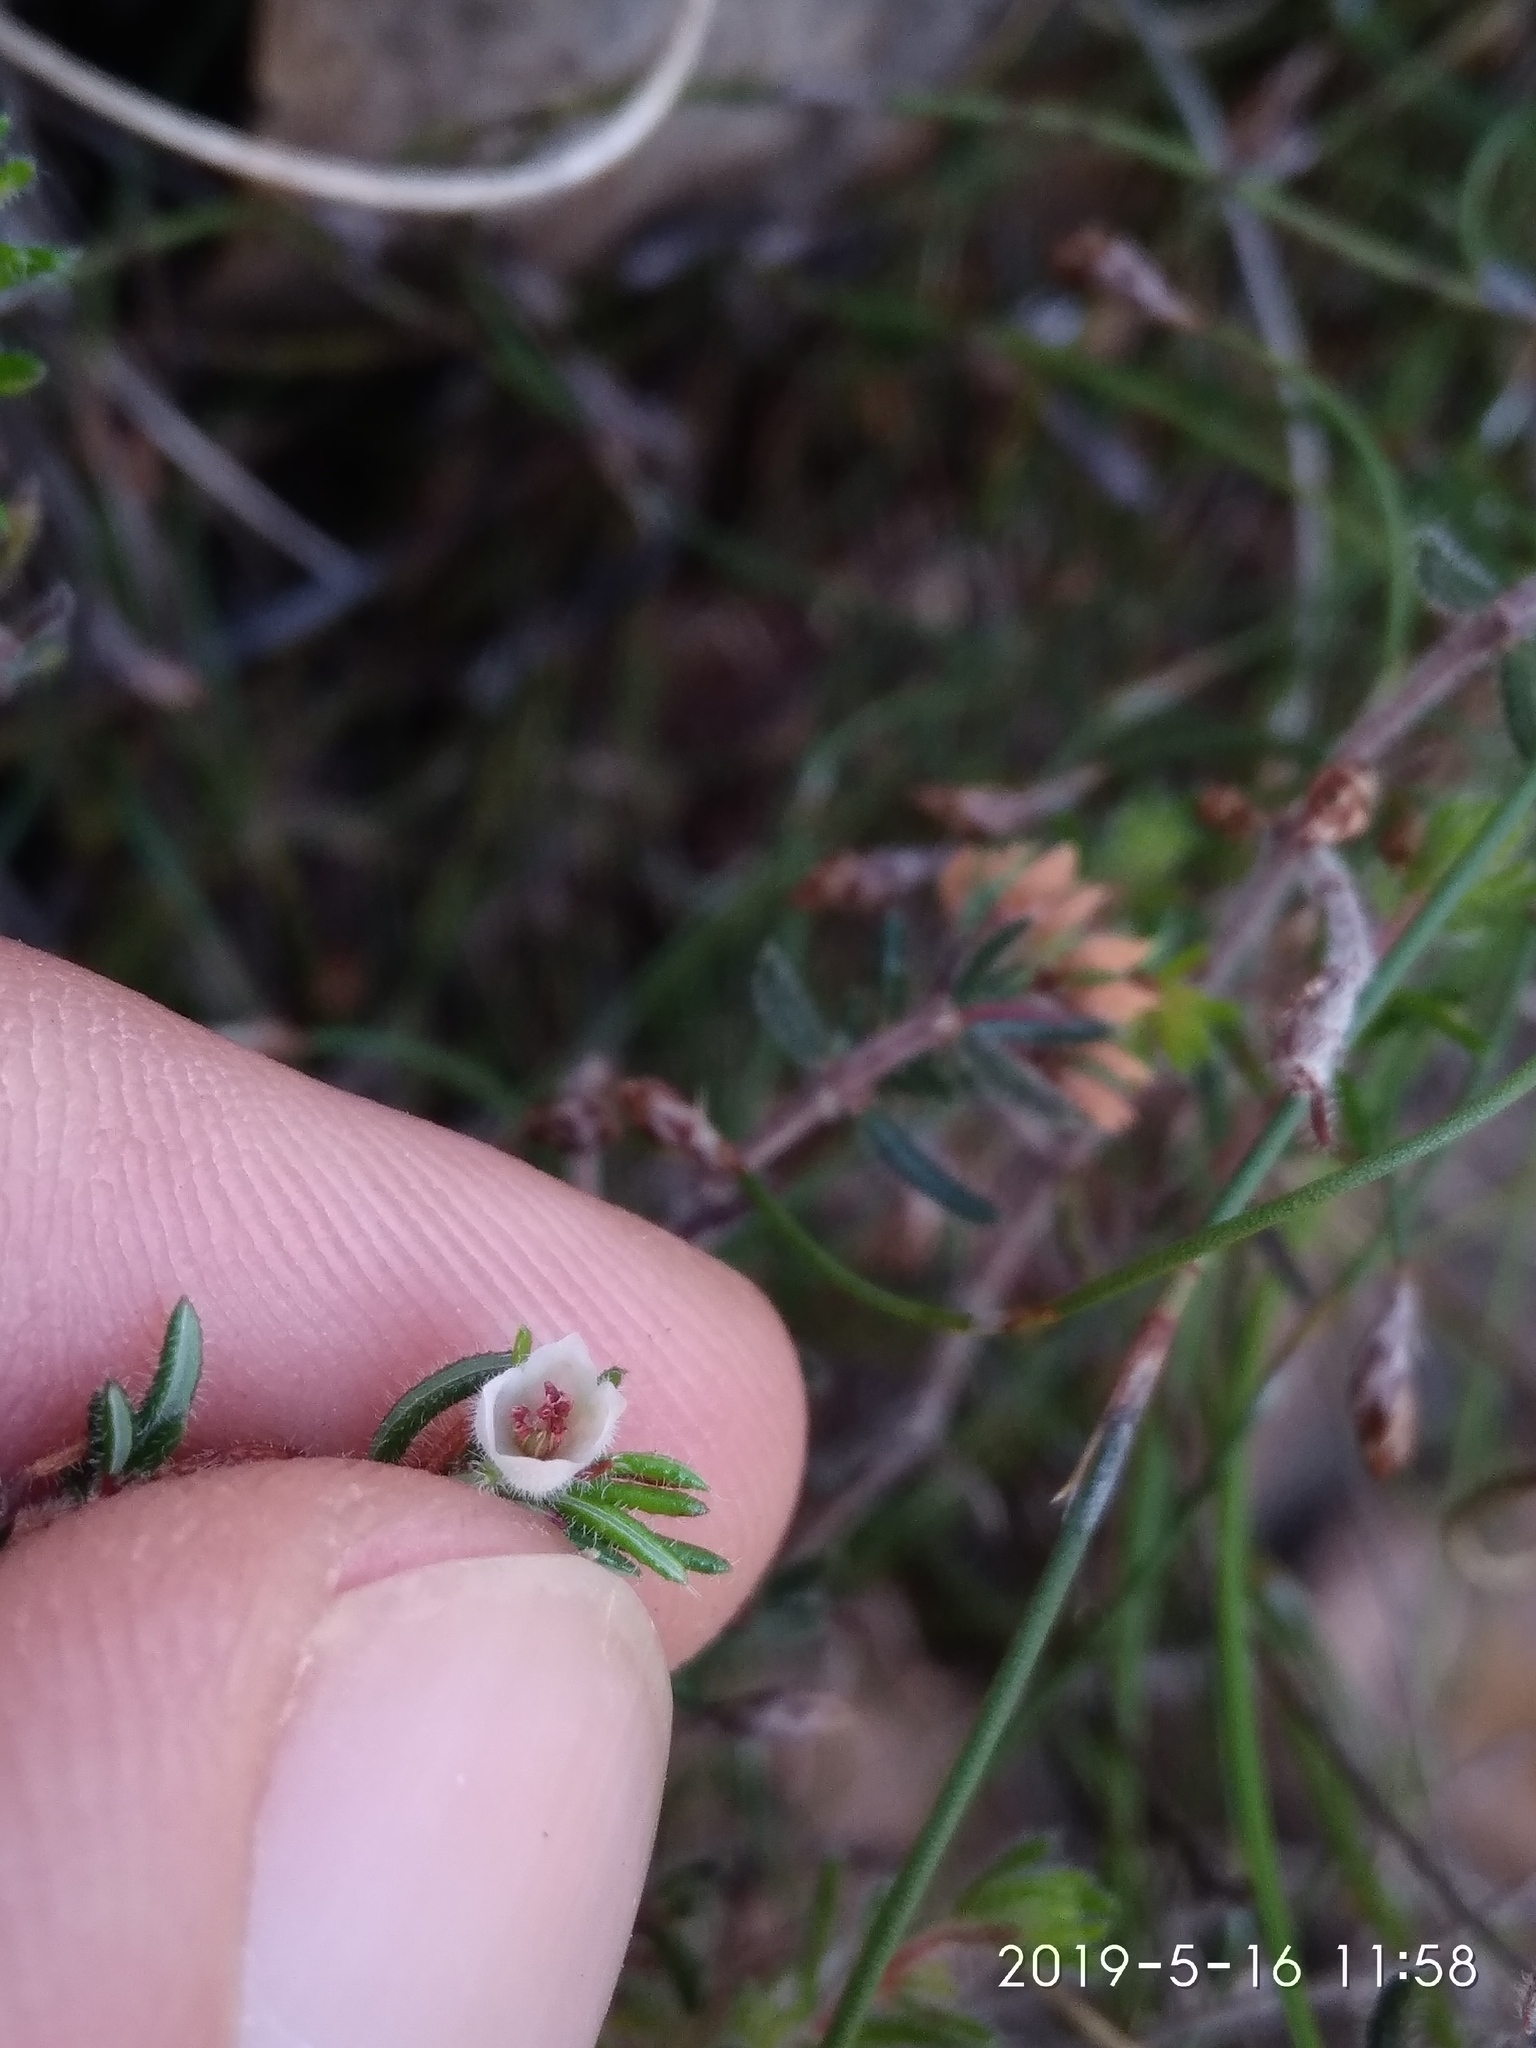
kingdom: Plantae
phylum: Tracheophyta
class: Magnoliopsida
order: Ericales
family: Ericaceae
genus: Erica
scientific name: Erica distorta
